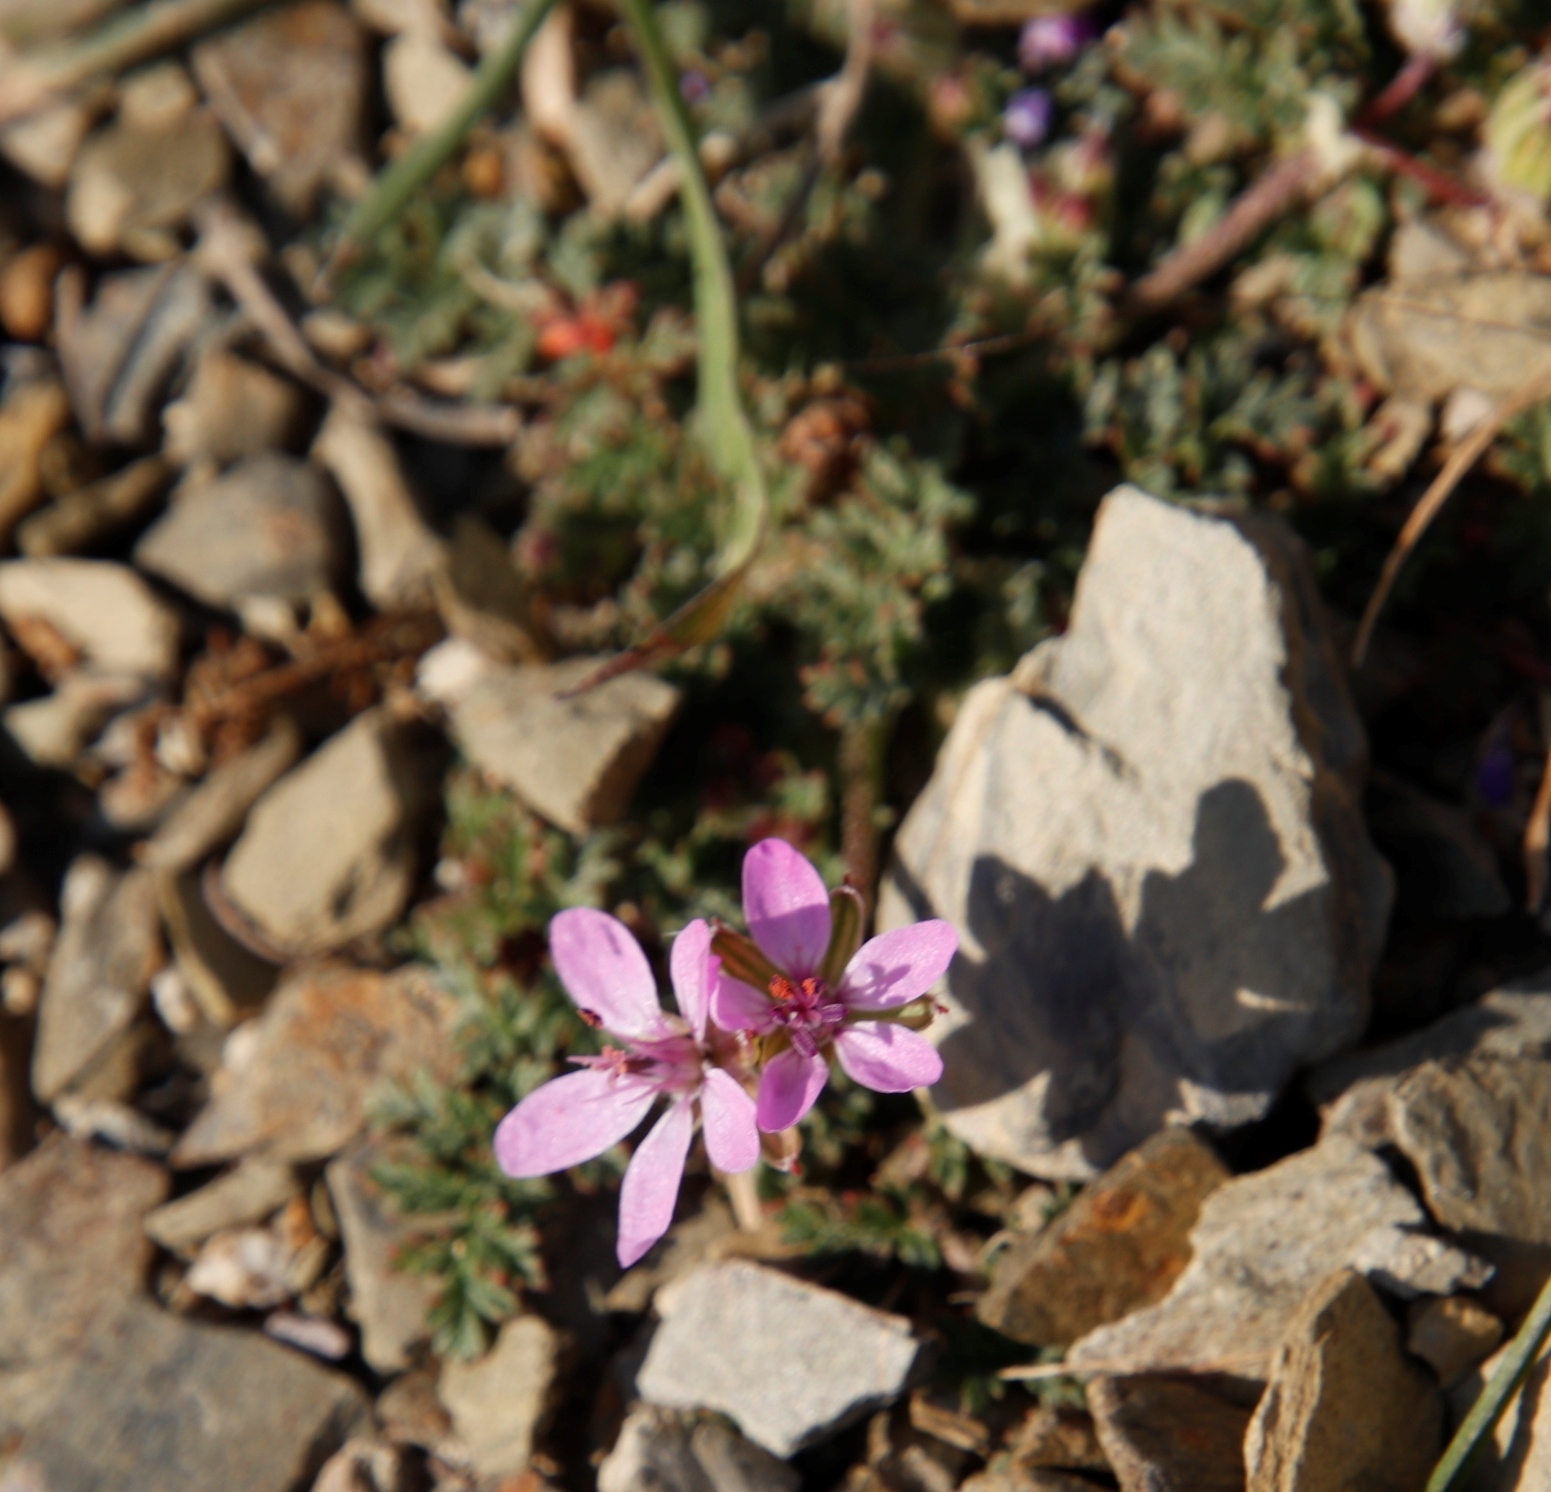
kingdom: Plantae
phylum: Tracheophyta
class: Magnoliopsida
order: Geraniales
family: Geraniaceae
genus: Erodium
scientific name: Erodium cicutarium
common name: Common stork's-bill
